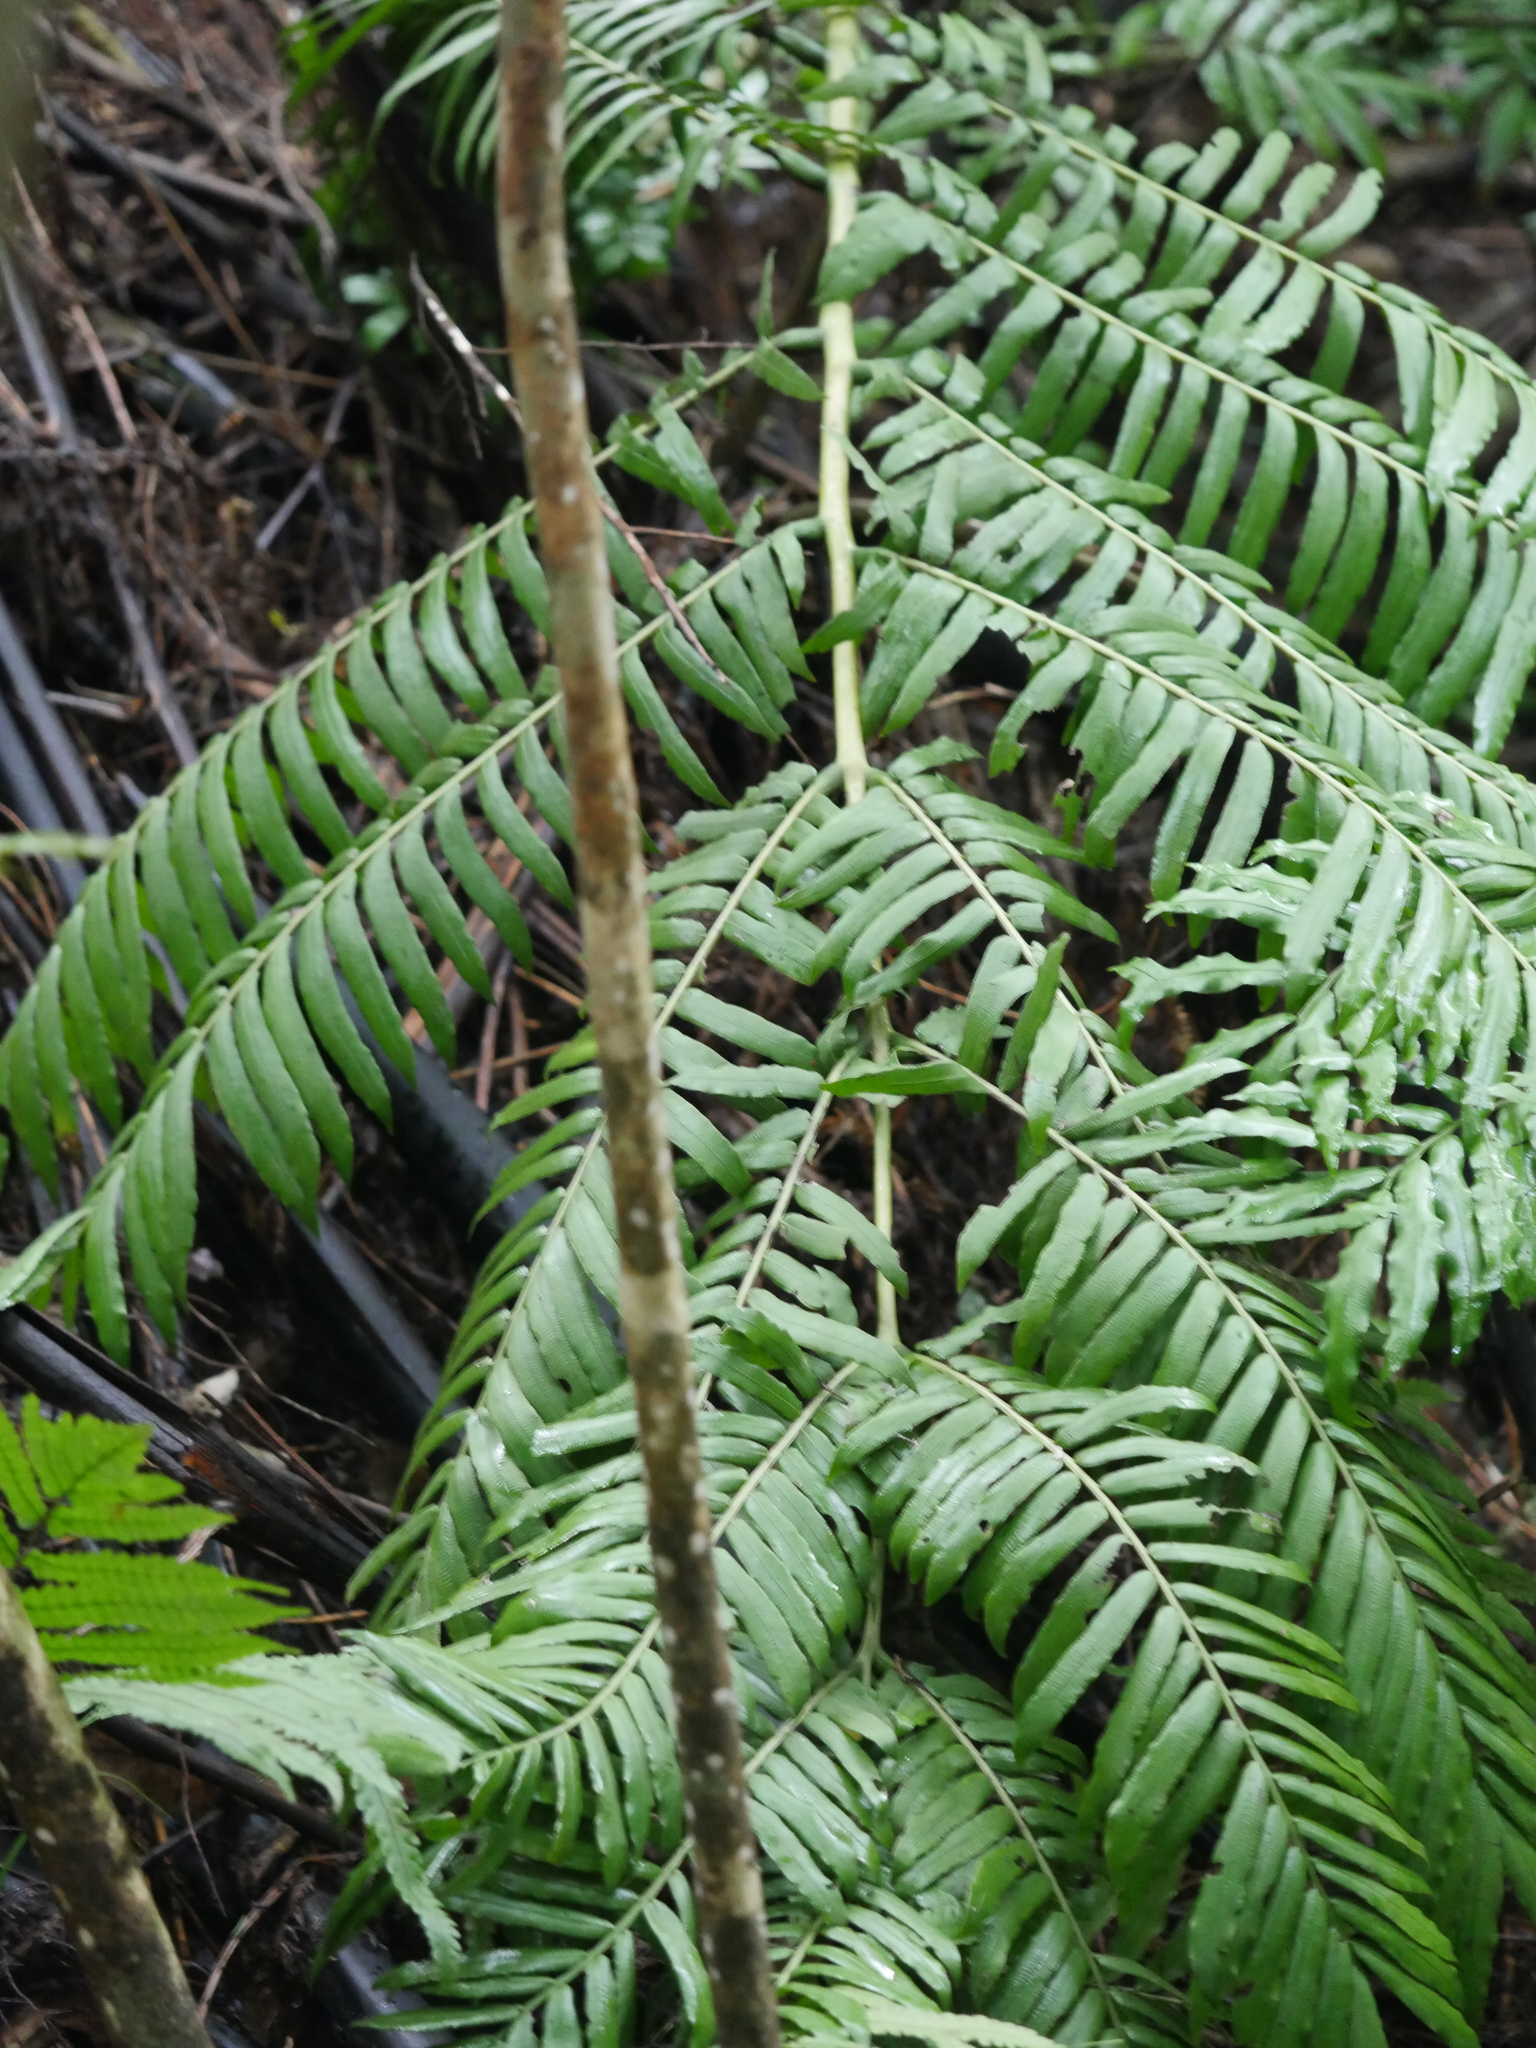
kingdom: Plantae
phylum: Tracheophyta
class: Polypodiopsida
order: Marattiales
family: Marattiaceae
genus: Ptisana
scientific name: Ptisana salicina
